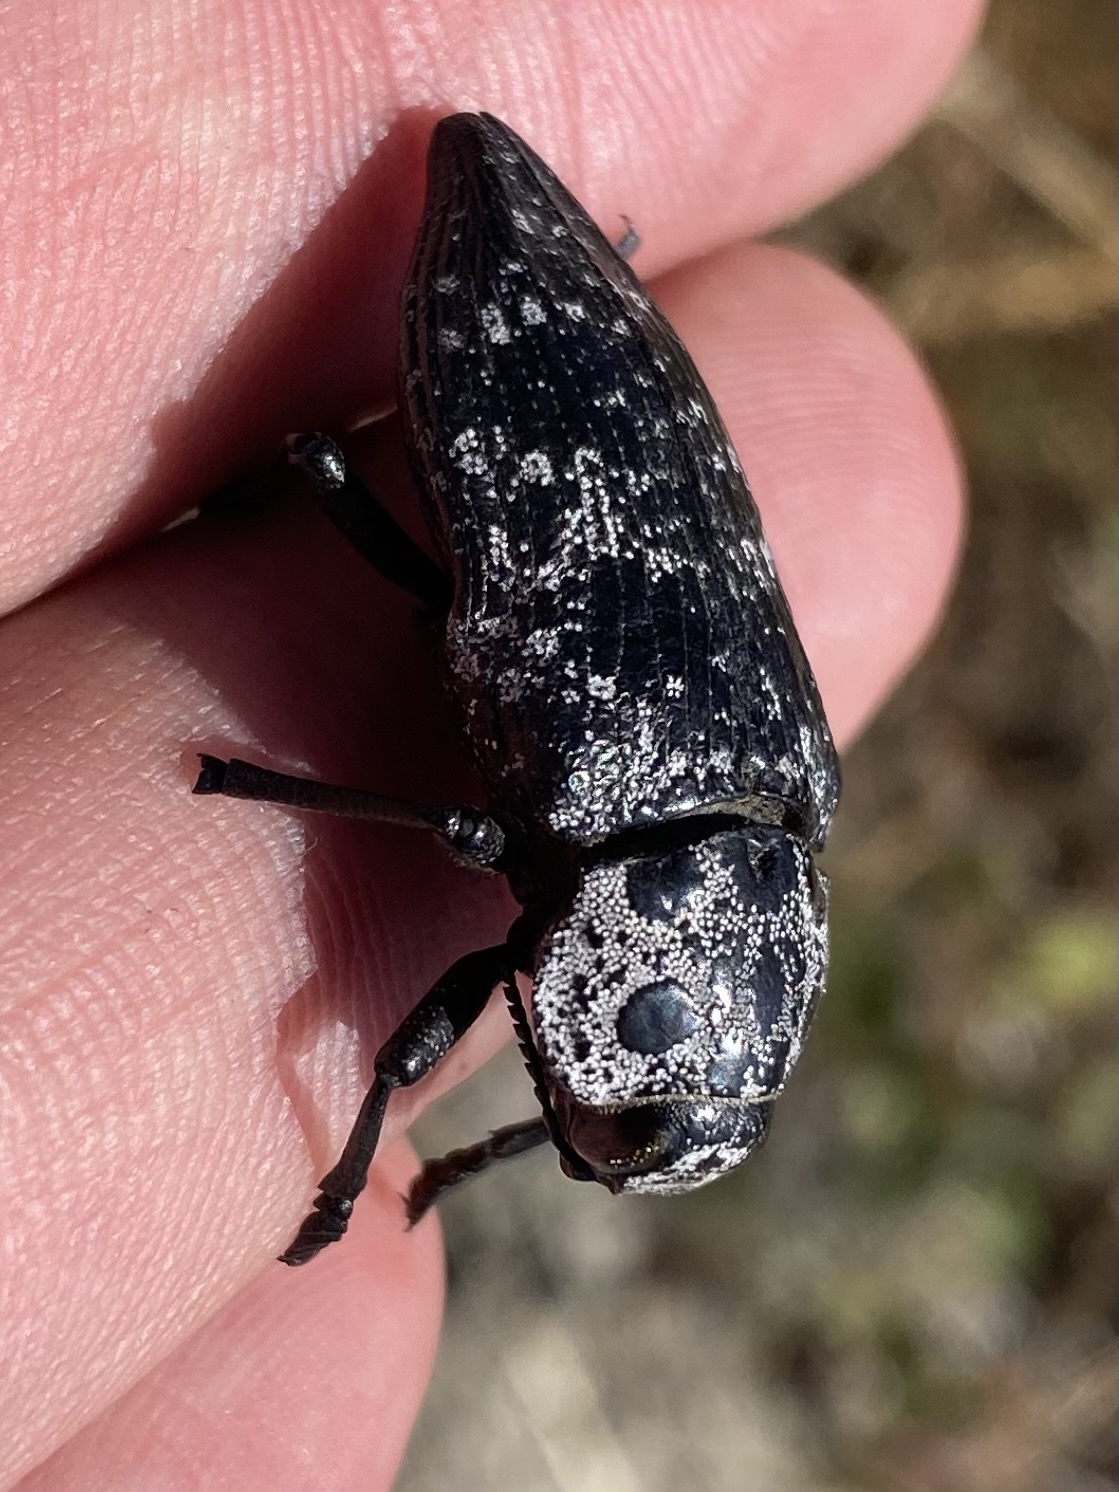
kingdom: Animalia
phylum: Arthropoda
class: Insecta
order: Coleoptera
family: Buprestidae
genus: Capnodis
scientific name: Capnodis cariosa
